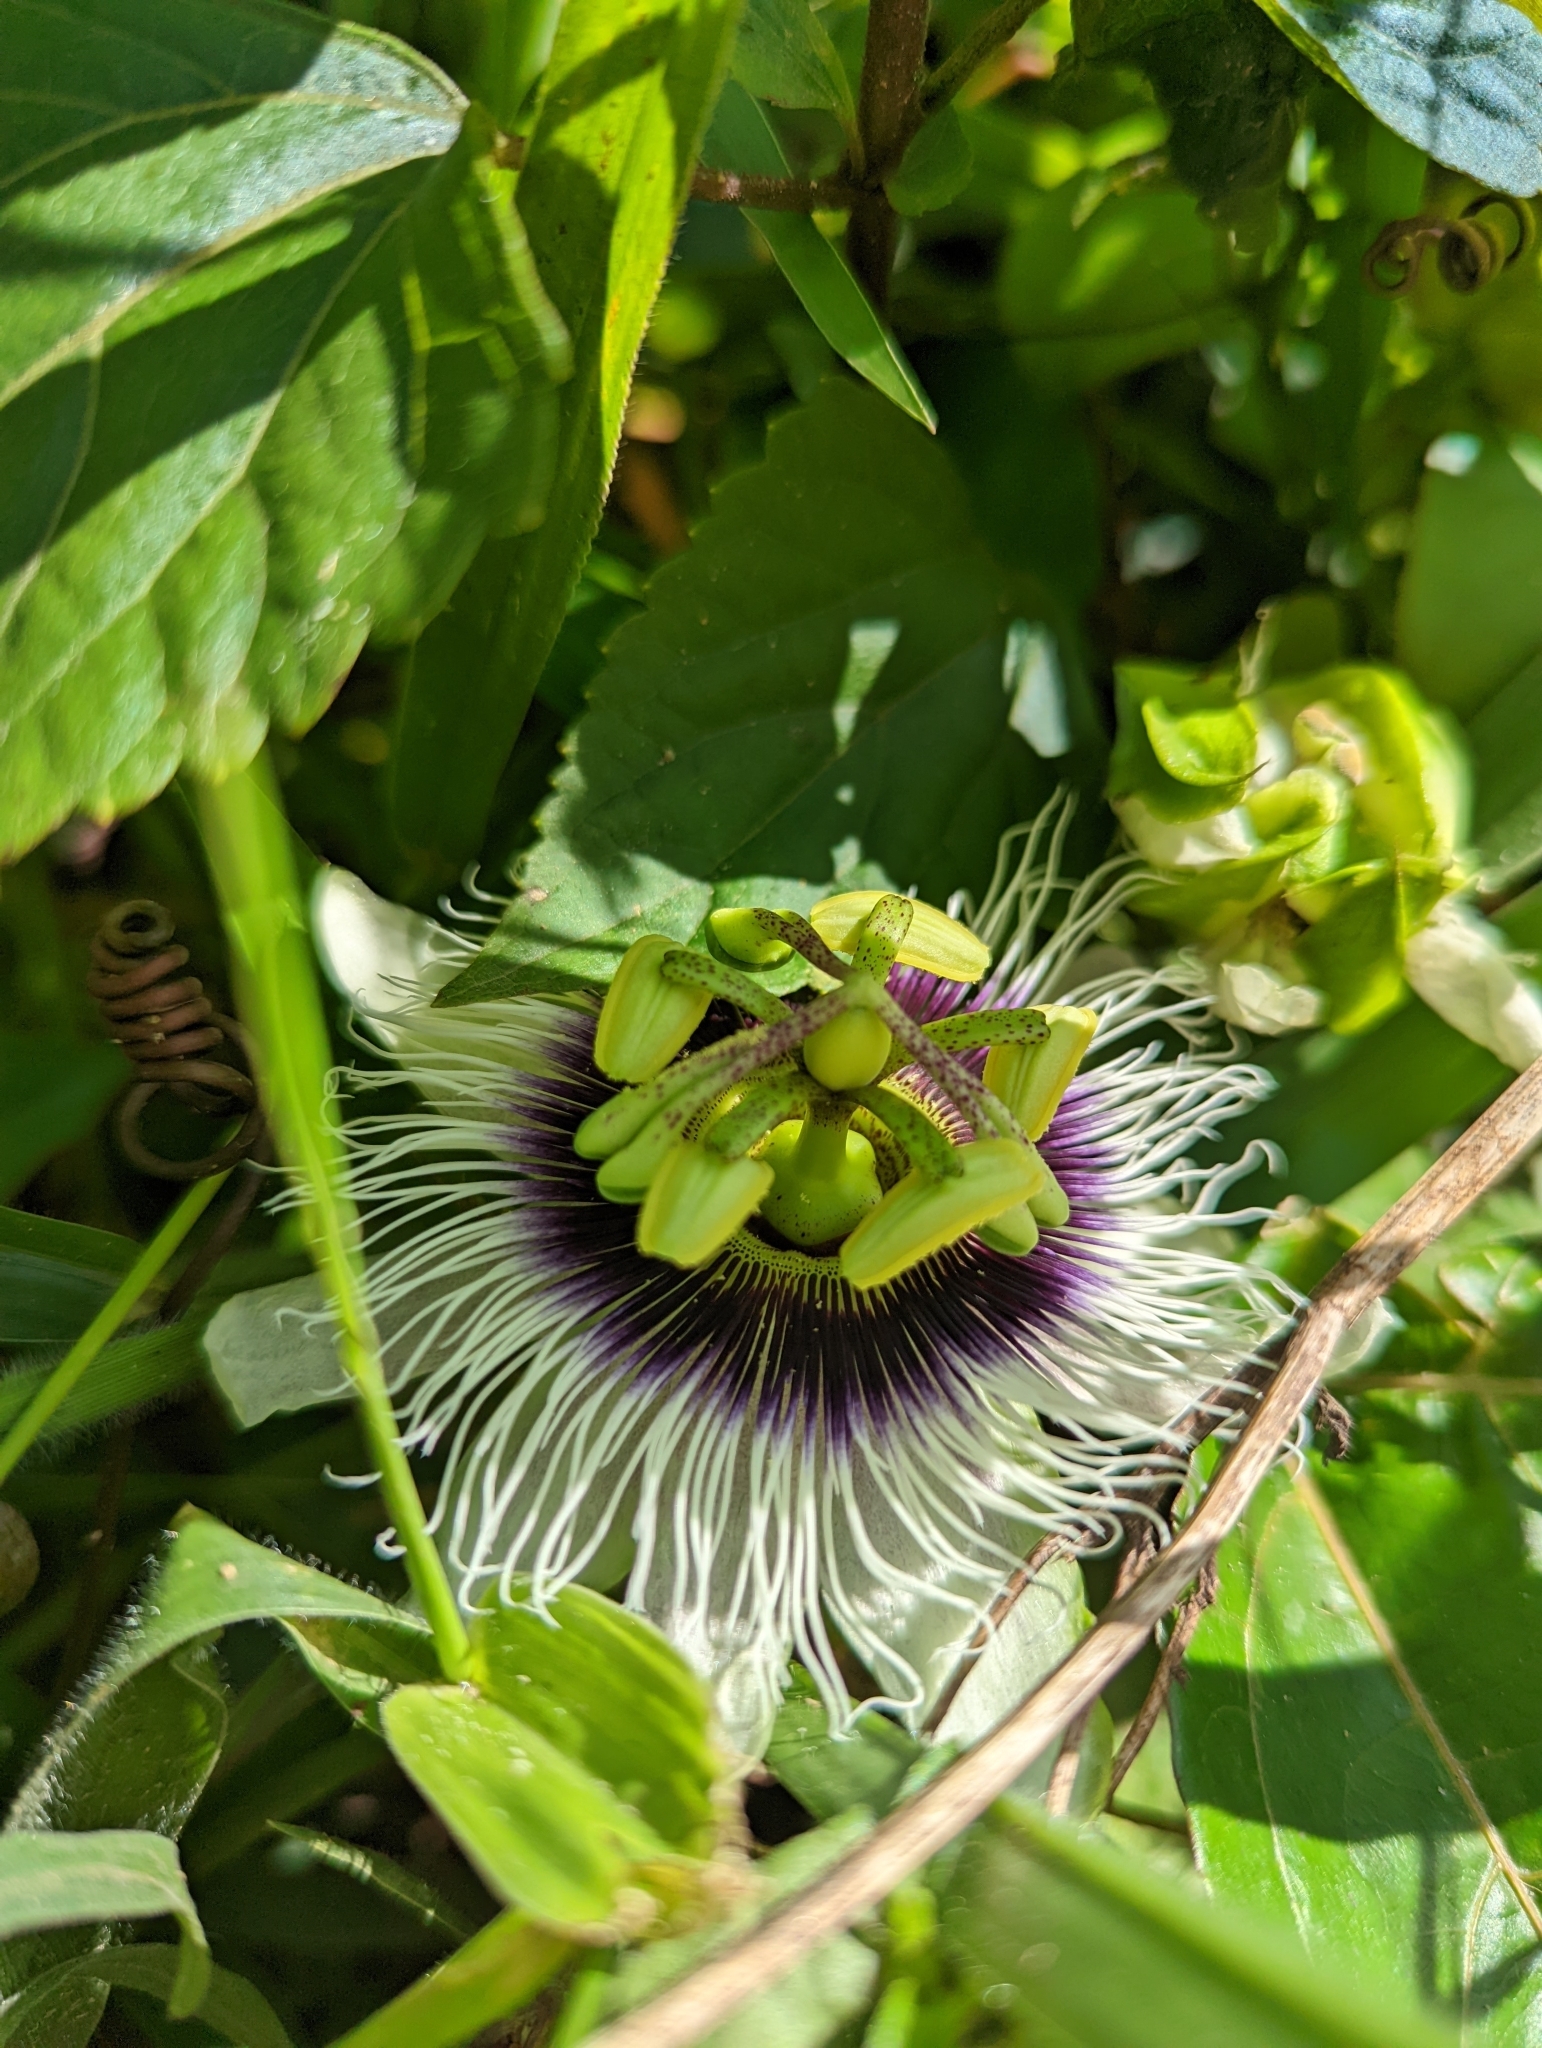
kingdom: Plantae
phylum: Tracheophyta
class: Magnoliopsida
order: Malpighiales
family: Passifloraceae
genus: Passiflora
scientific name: Passiflora edulis
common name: Purple granadilla
